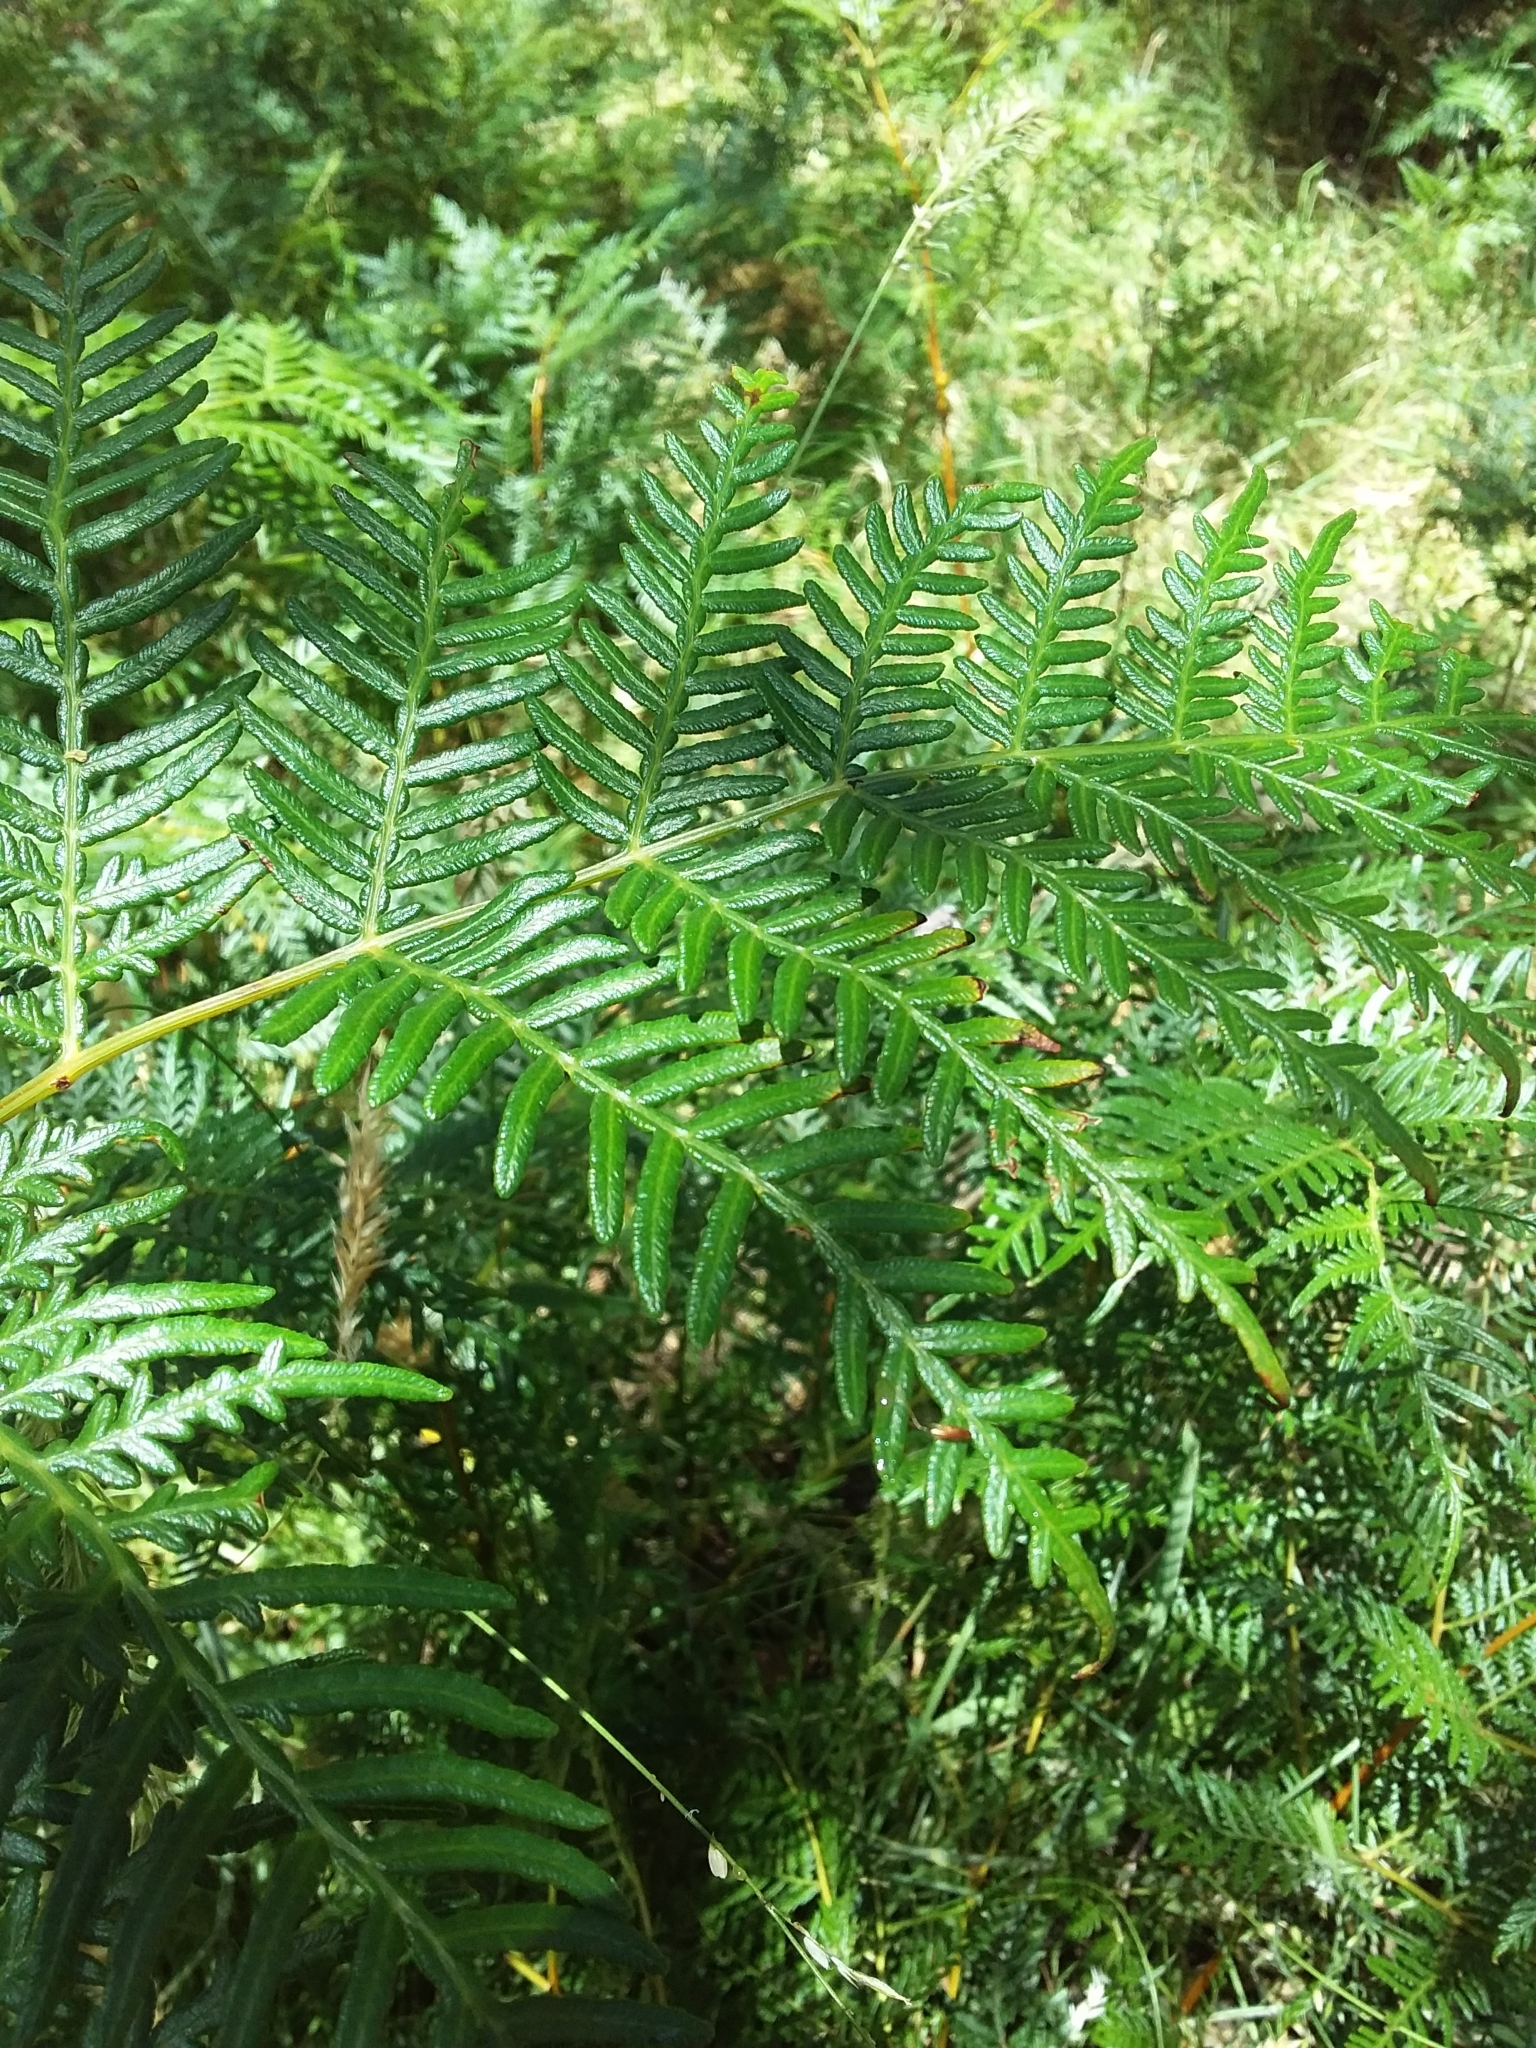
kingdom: Plantae
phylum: Tracheophyta
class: Polypodiopsida
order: Polypodiales
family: Dennstaedtiaceae
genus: Pteridium
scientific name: Pteridium esculentum
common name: Bracken fern
